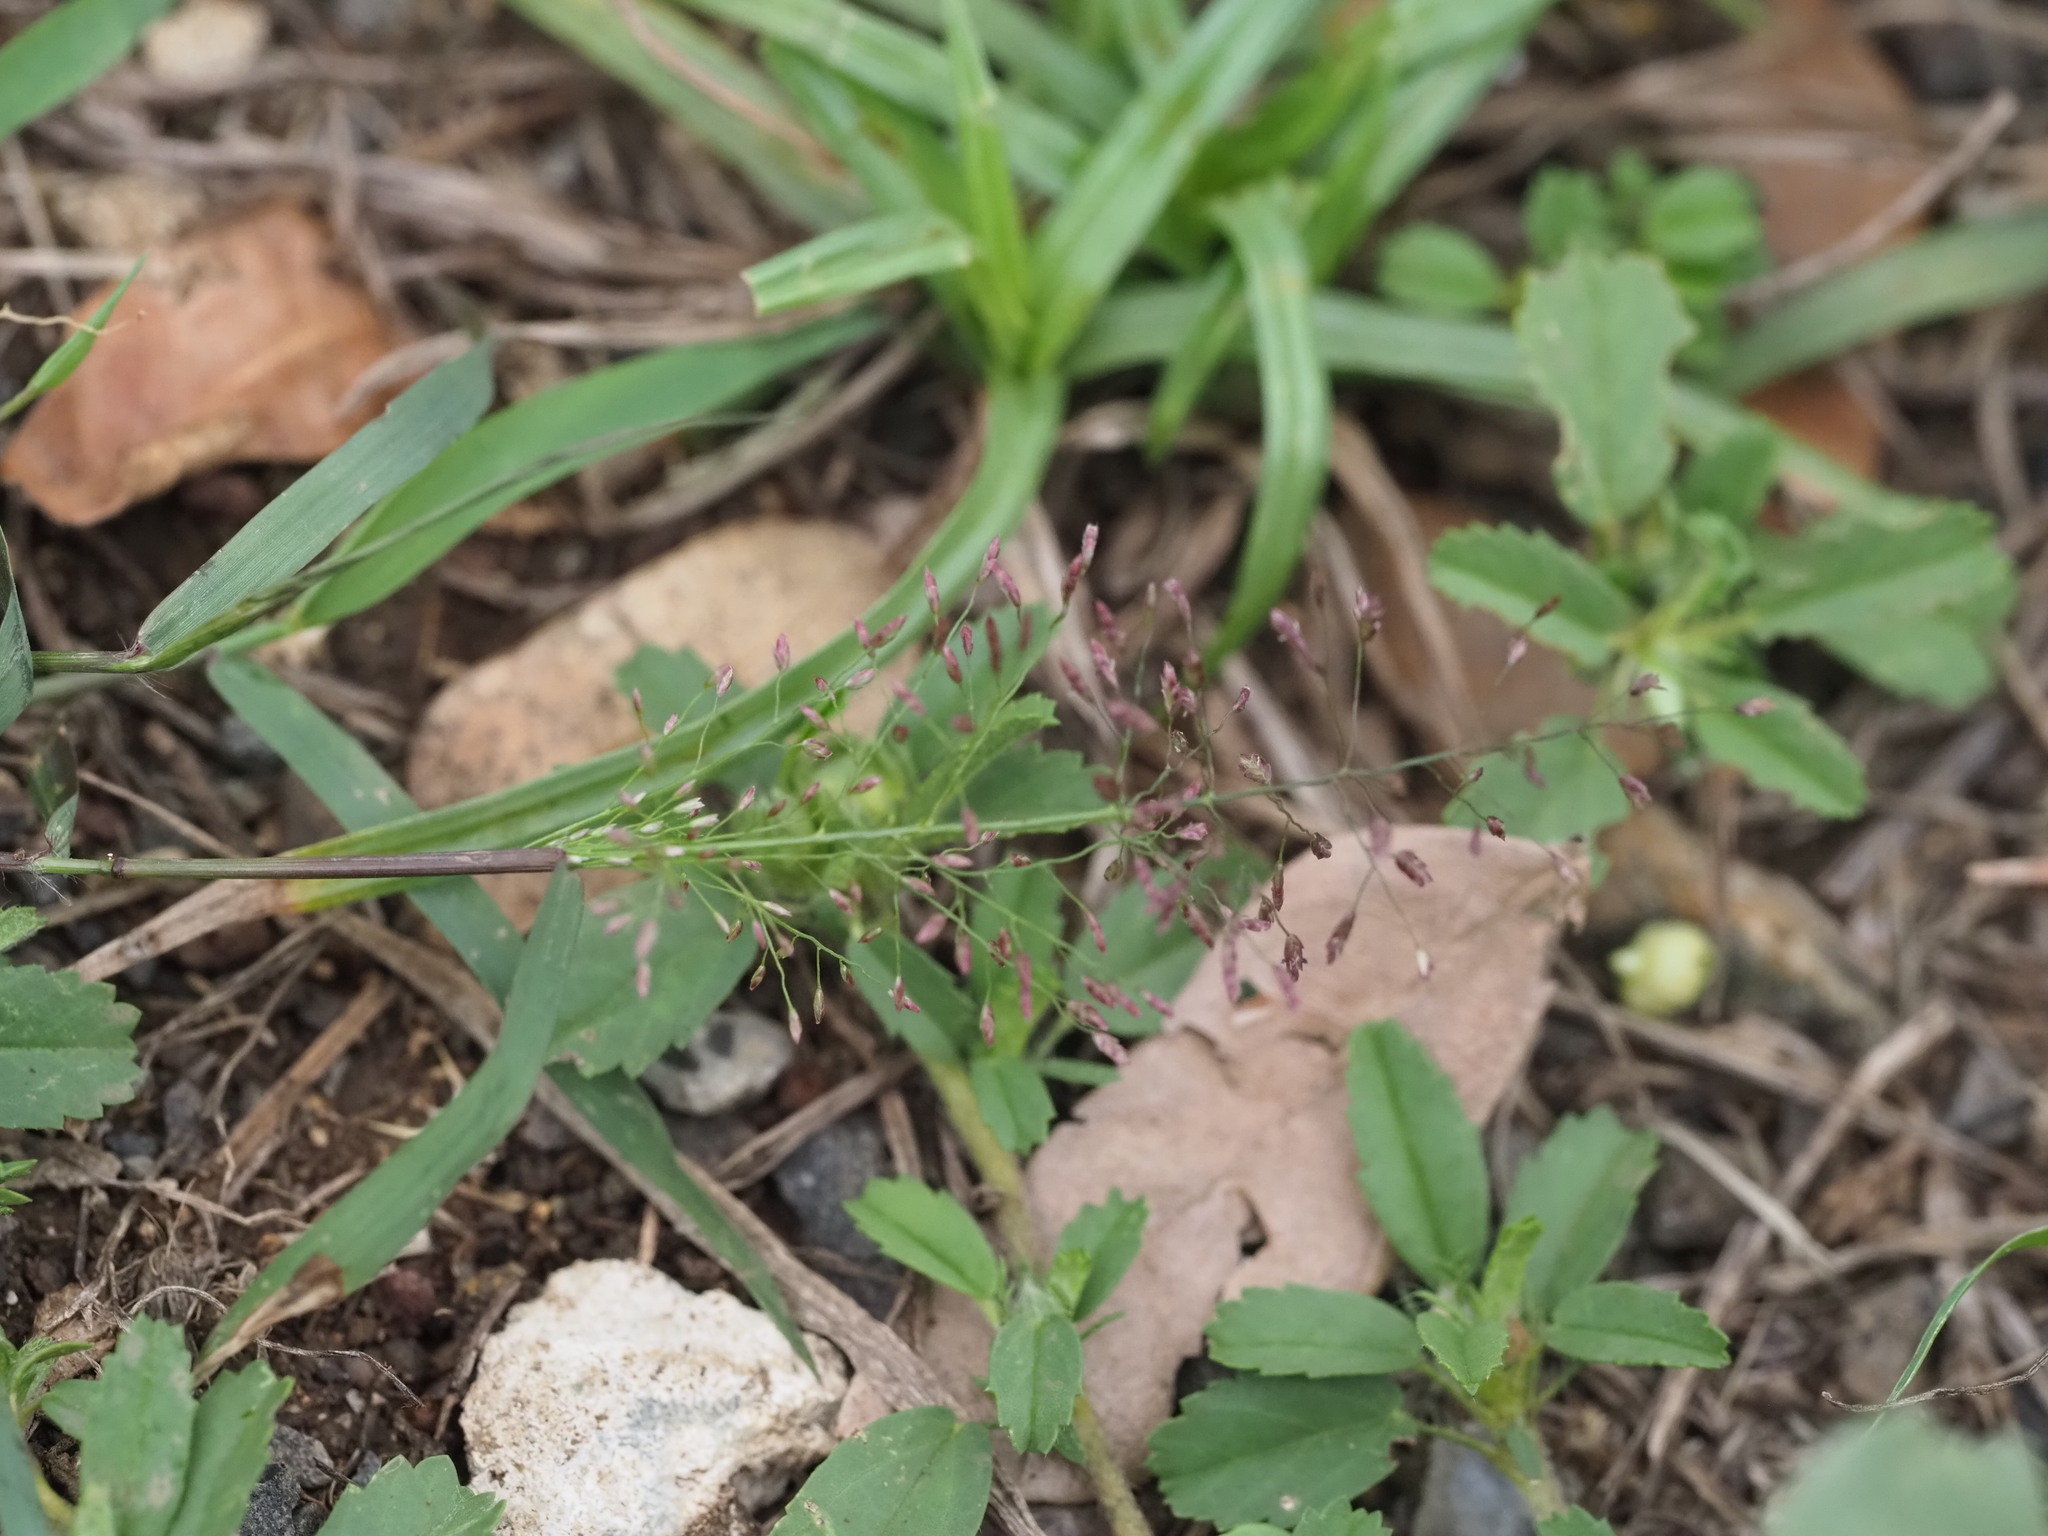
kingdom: Plantae
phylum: Tracheophyta
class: Liliopsida
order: Poales
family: Poaceae
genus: Eragrostis
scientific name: Eragrostis tenella
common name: Japanese lovegrass
